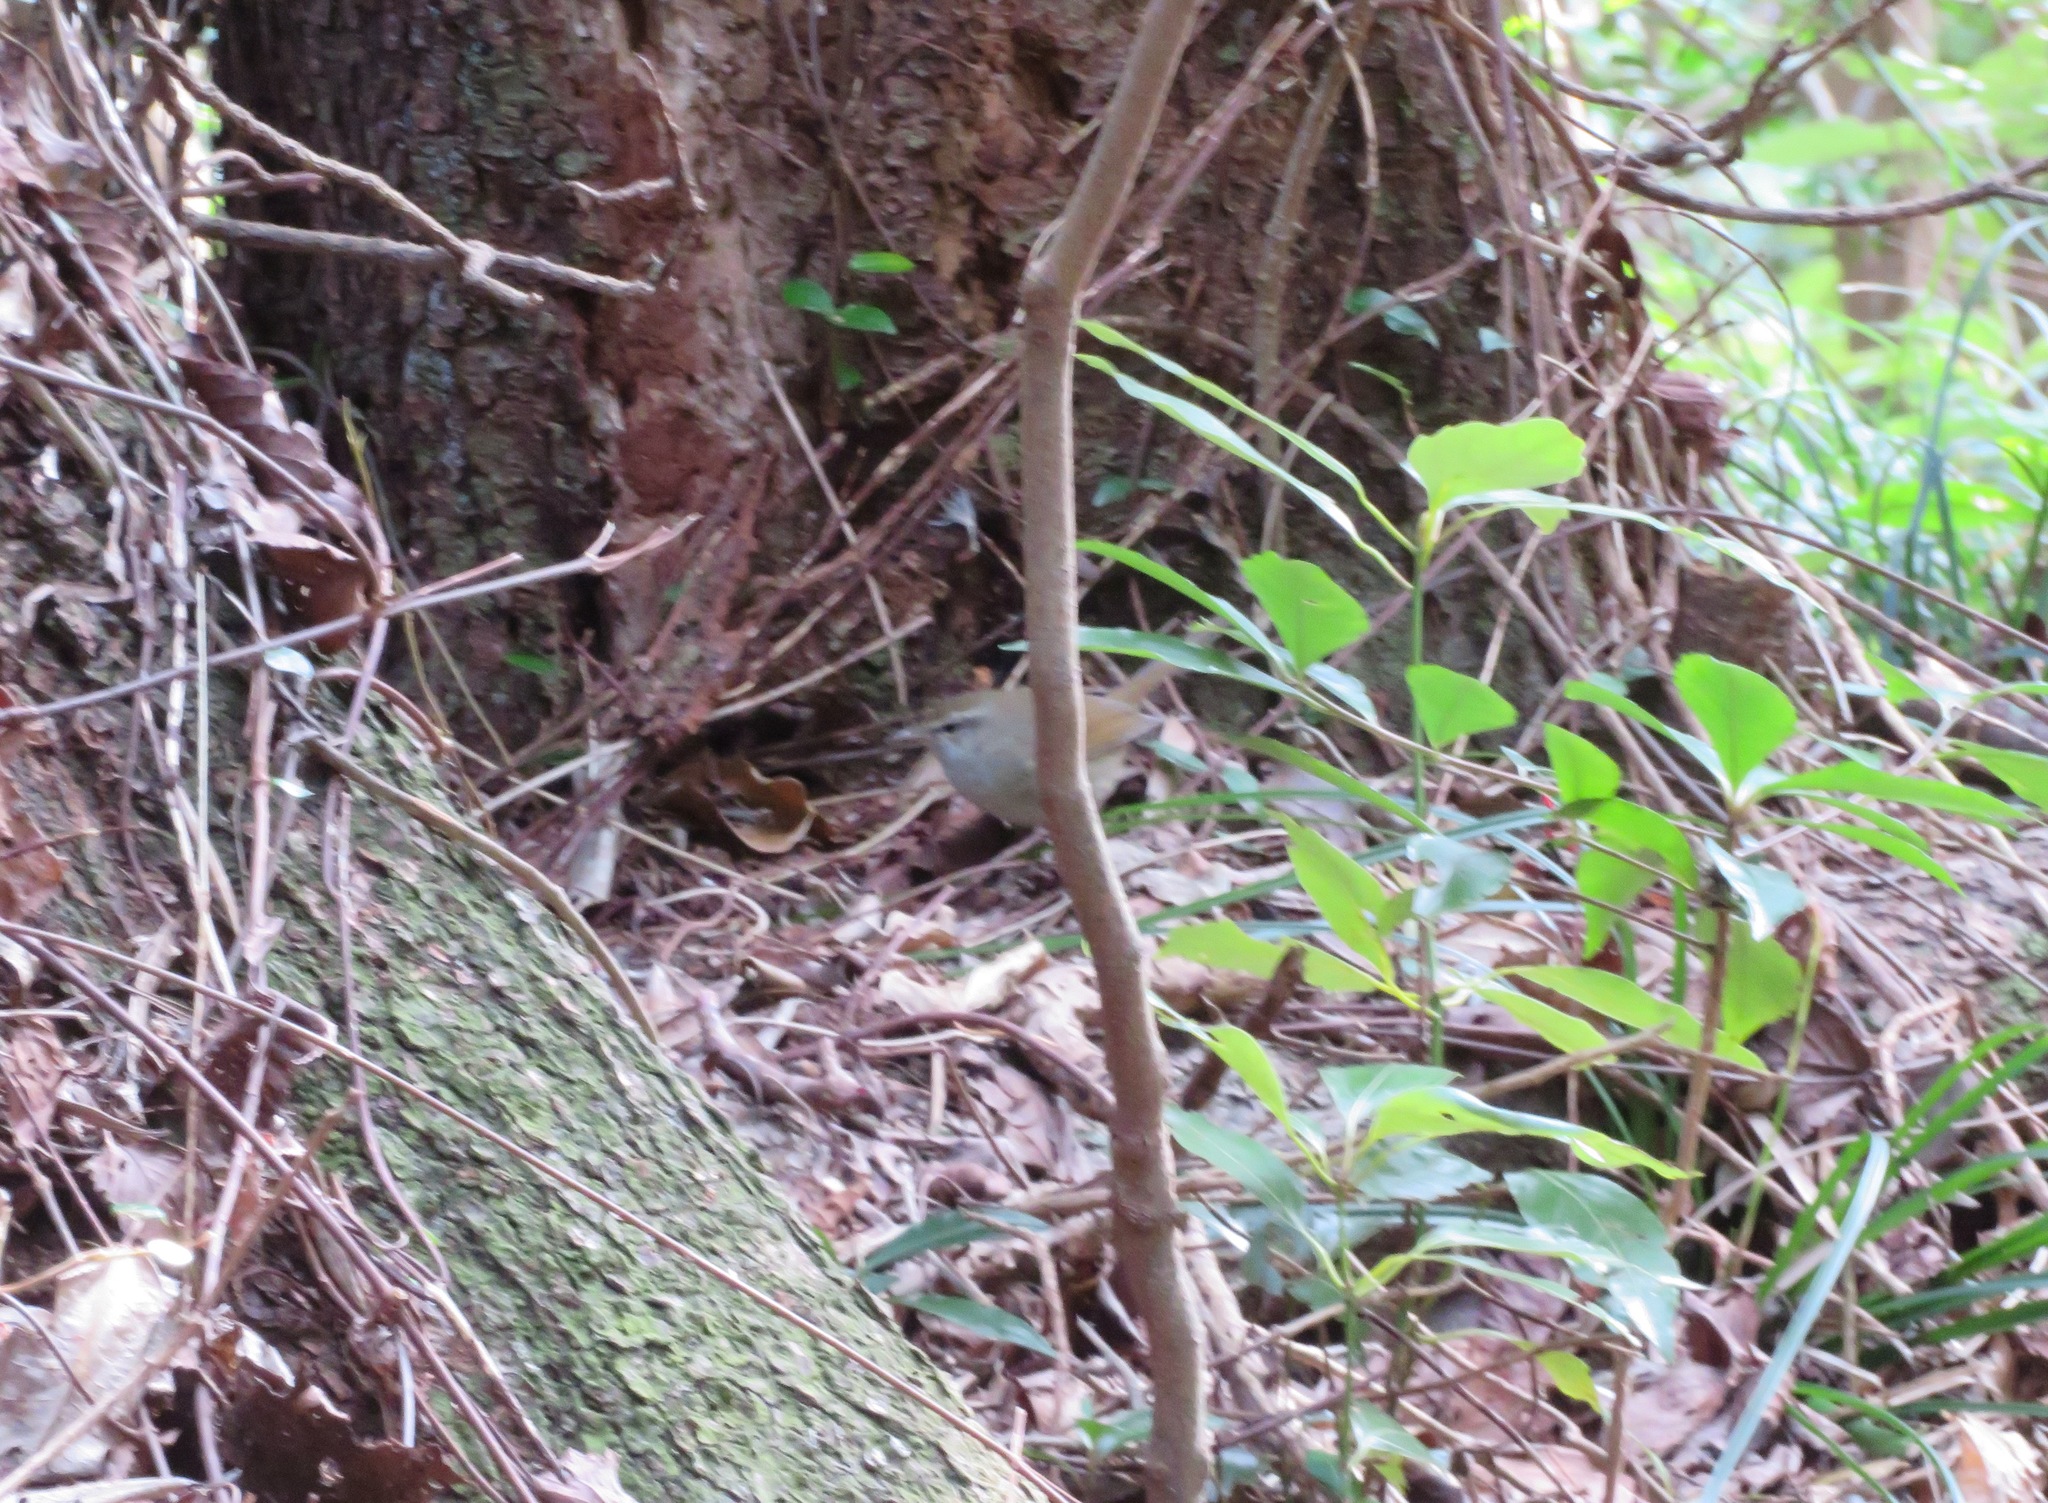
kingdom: Animalia
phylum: Chordata
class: Aves
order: Passeriformes
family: Cettiidae
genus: Horornis
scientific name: Horornis diphone
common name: Japanese bush warbler
